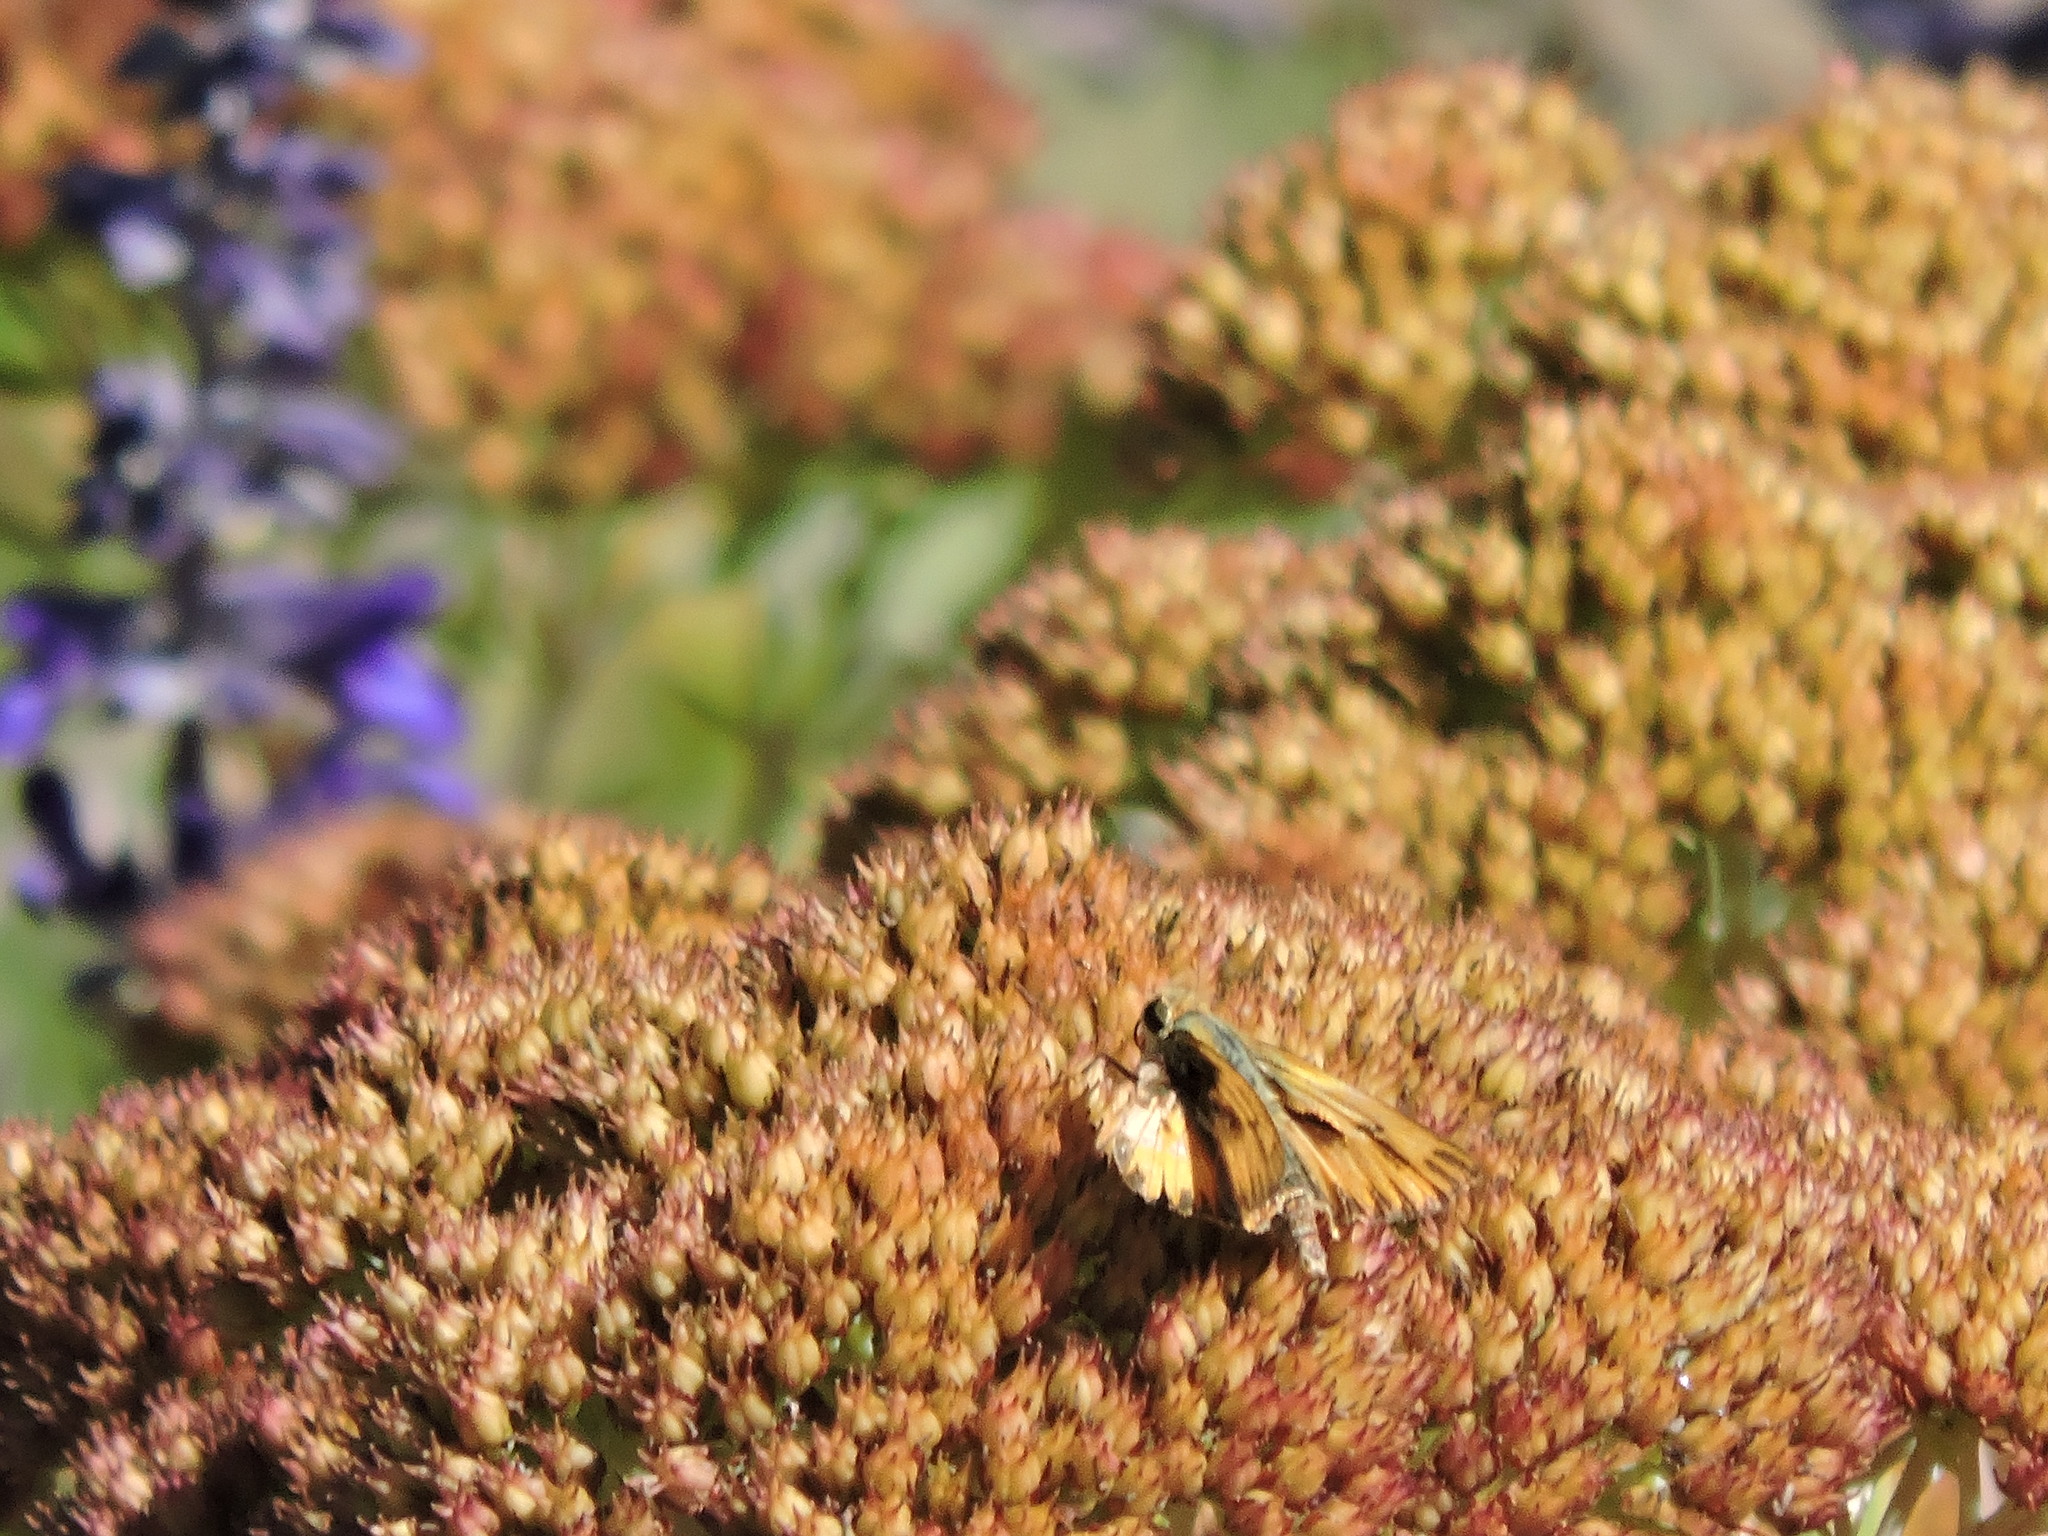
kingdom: Animalia
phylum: Arthropoda
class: Insecta
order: Lepidoptera
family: Hesperiidae
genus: Hylephila
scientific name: Hylephila phyleus
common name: Fiery skipper
